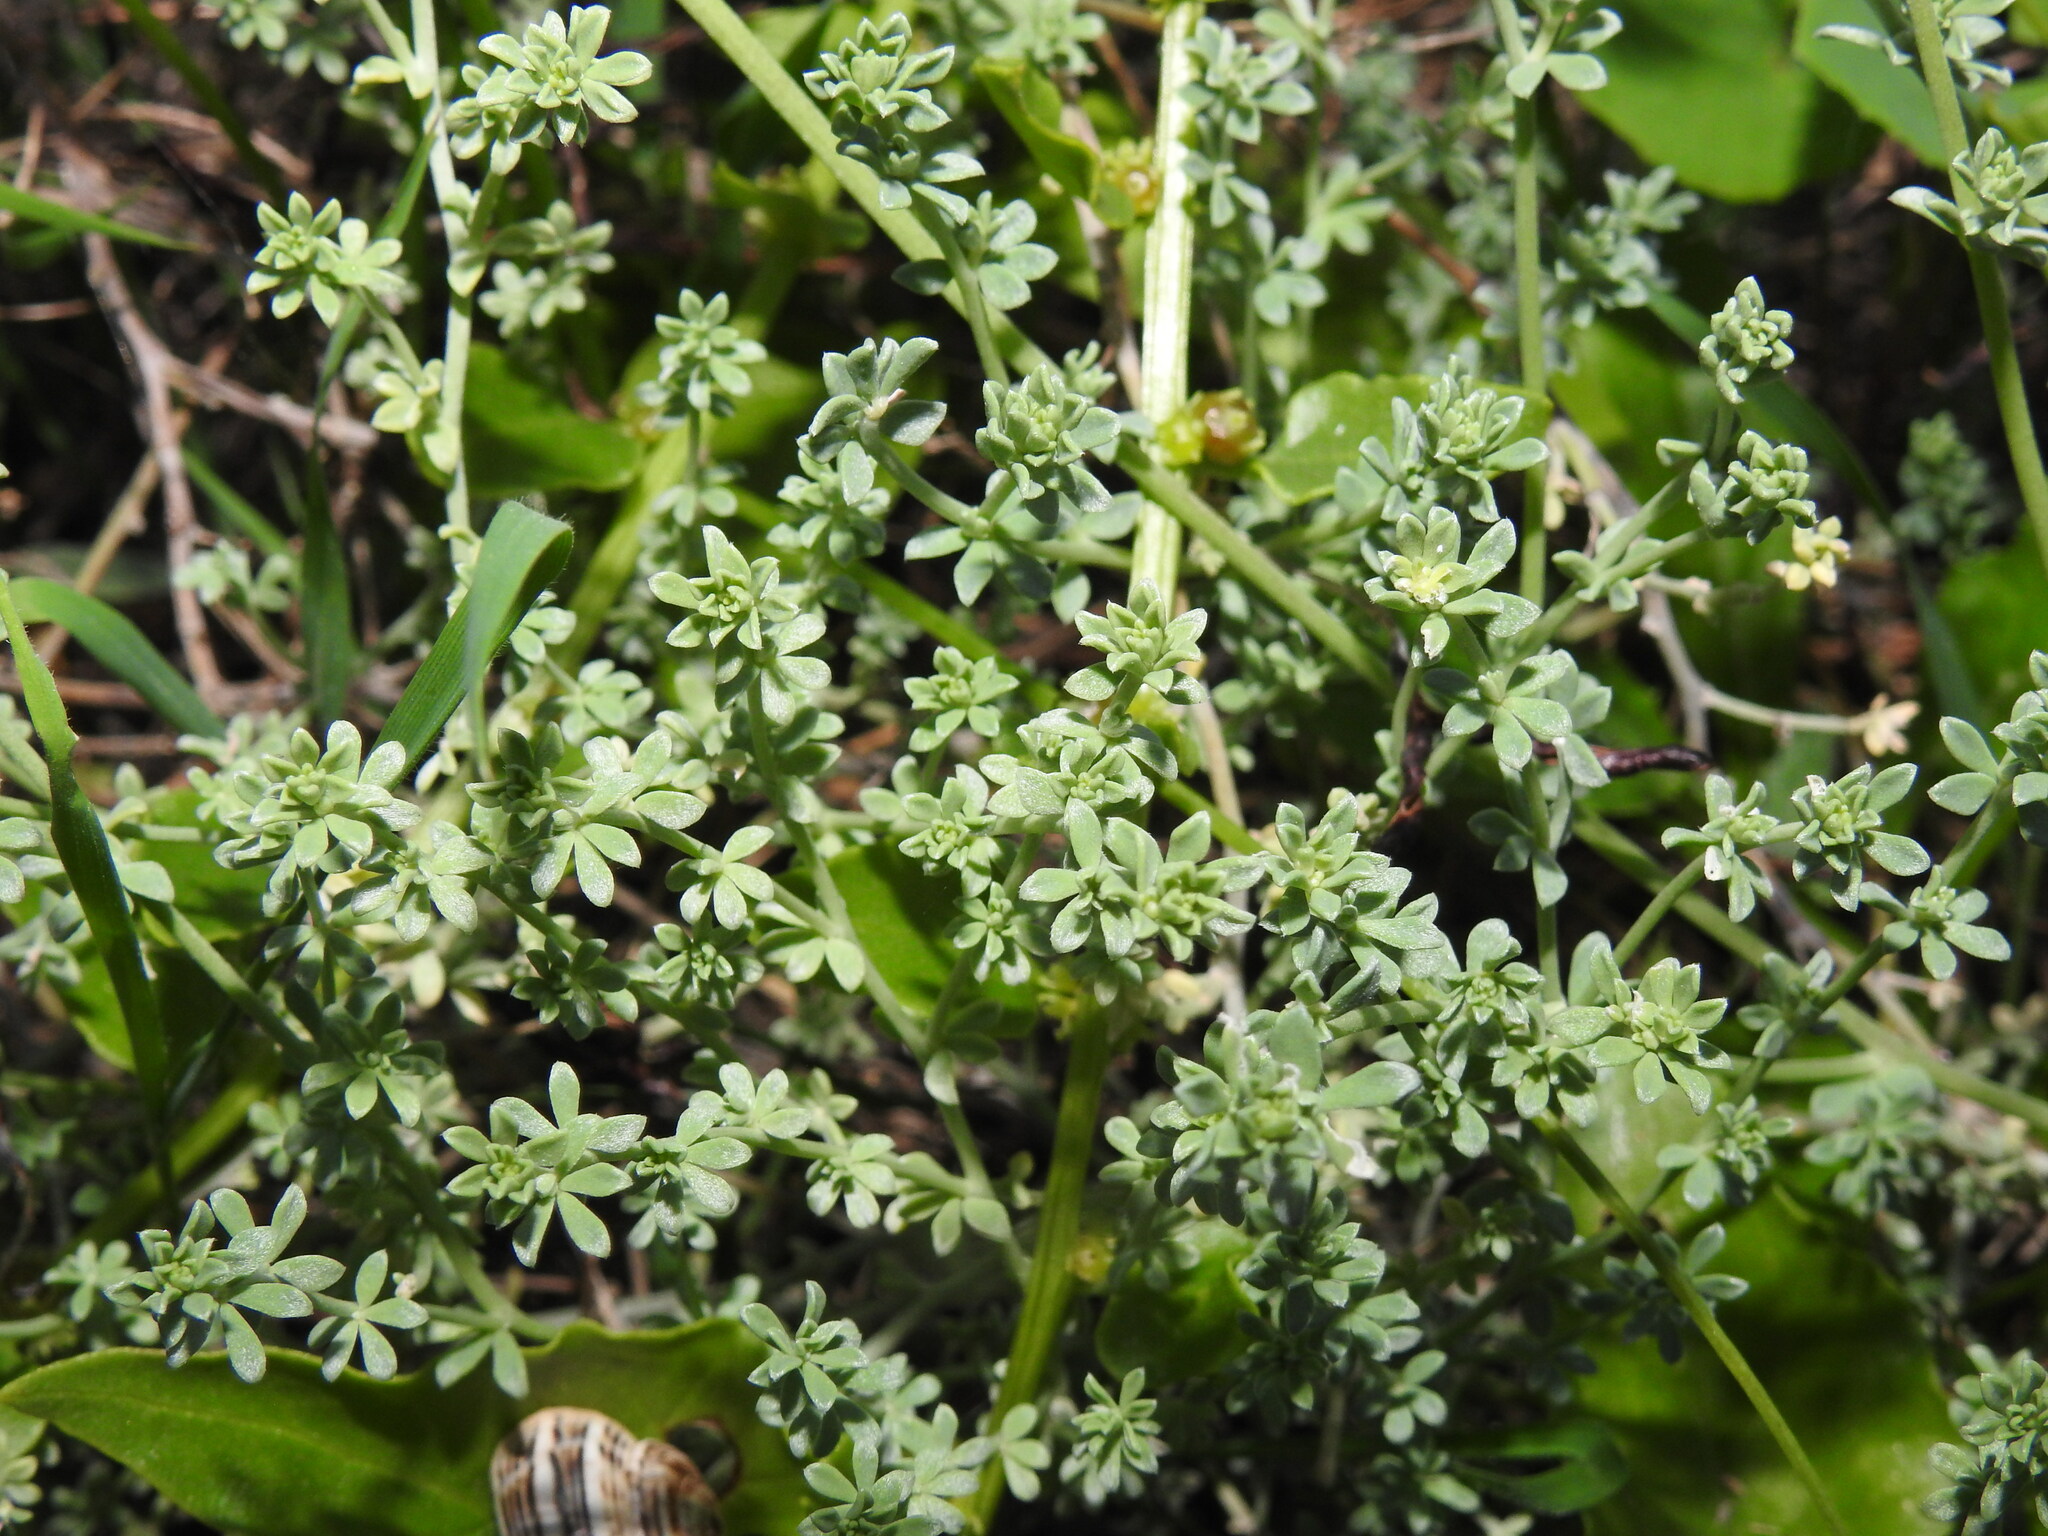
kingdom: Plantae
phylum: Tracheophyta
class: Magnoliopsida
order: Fabales
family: Fabaceae
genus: Lotus
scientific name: Lotus glaucus
